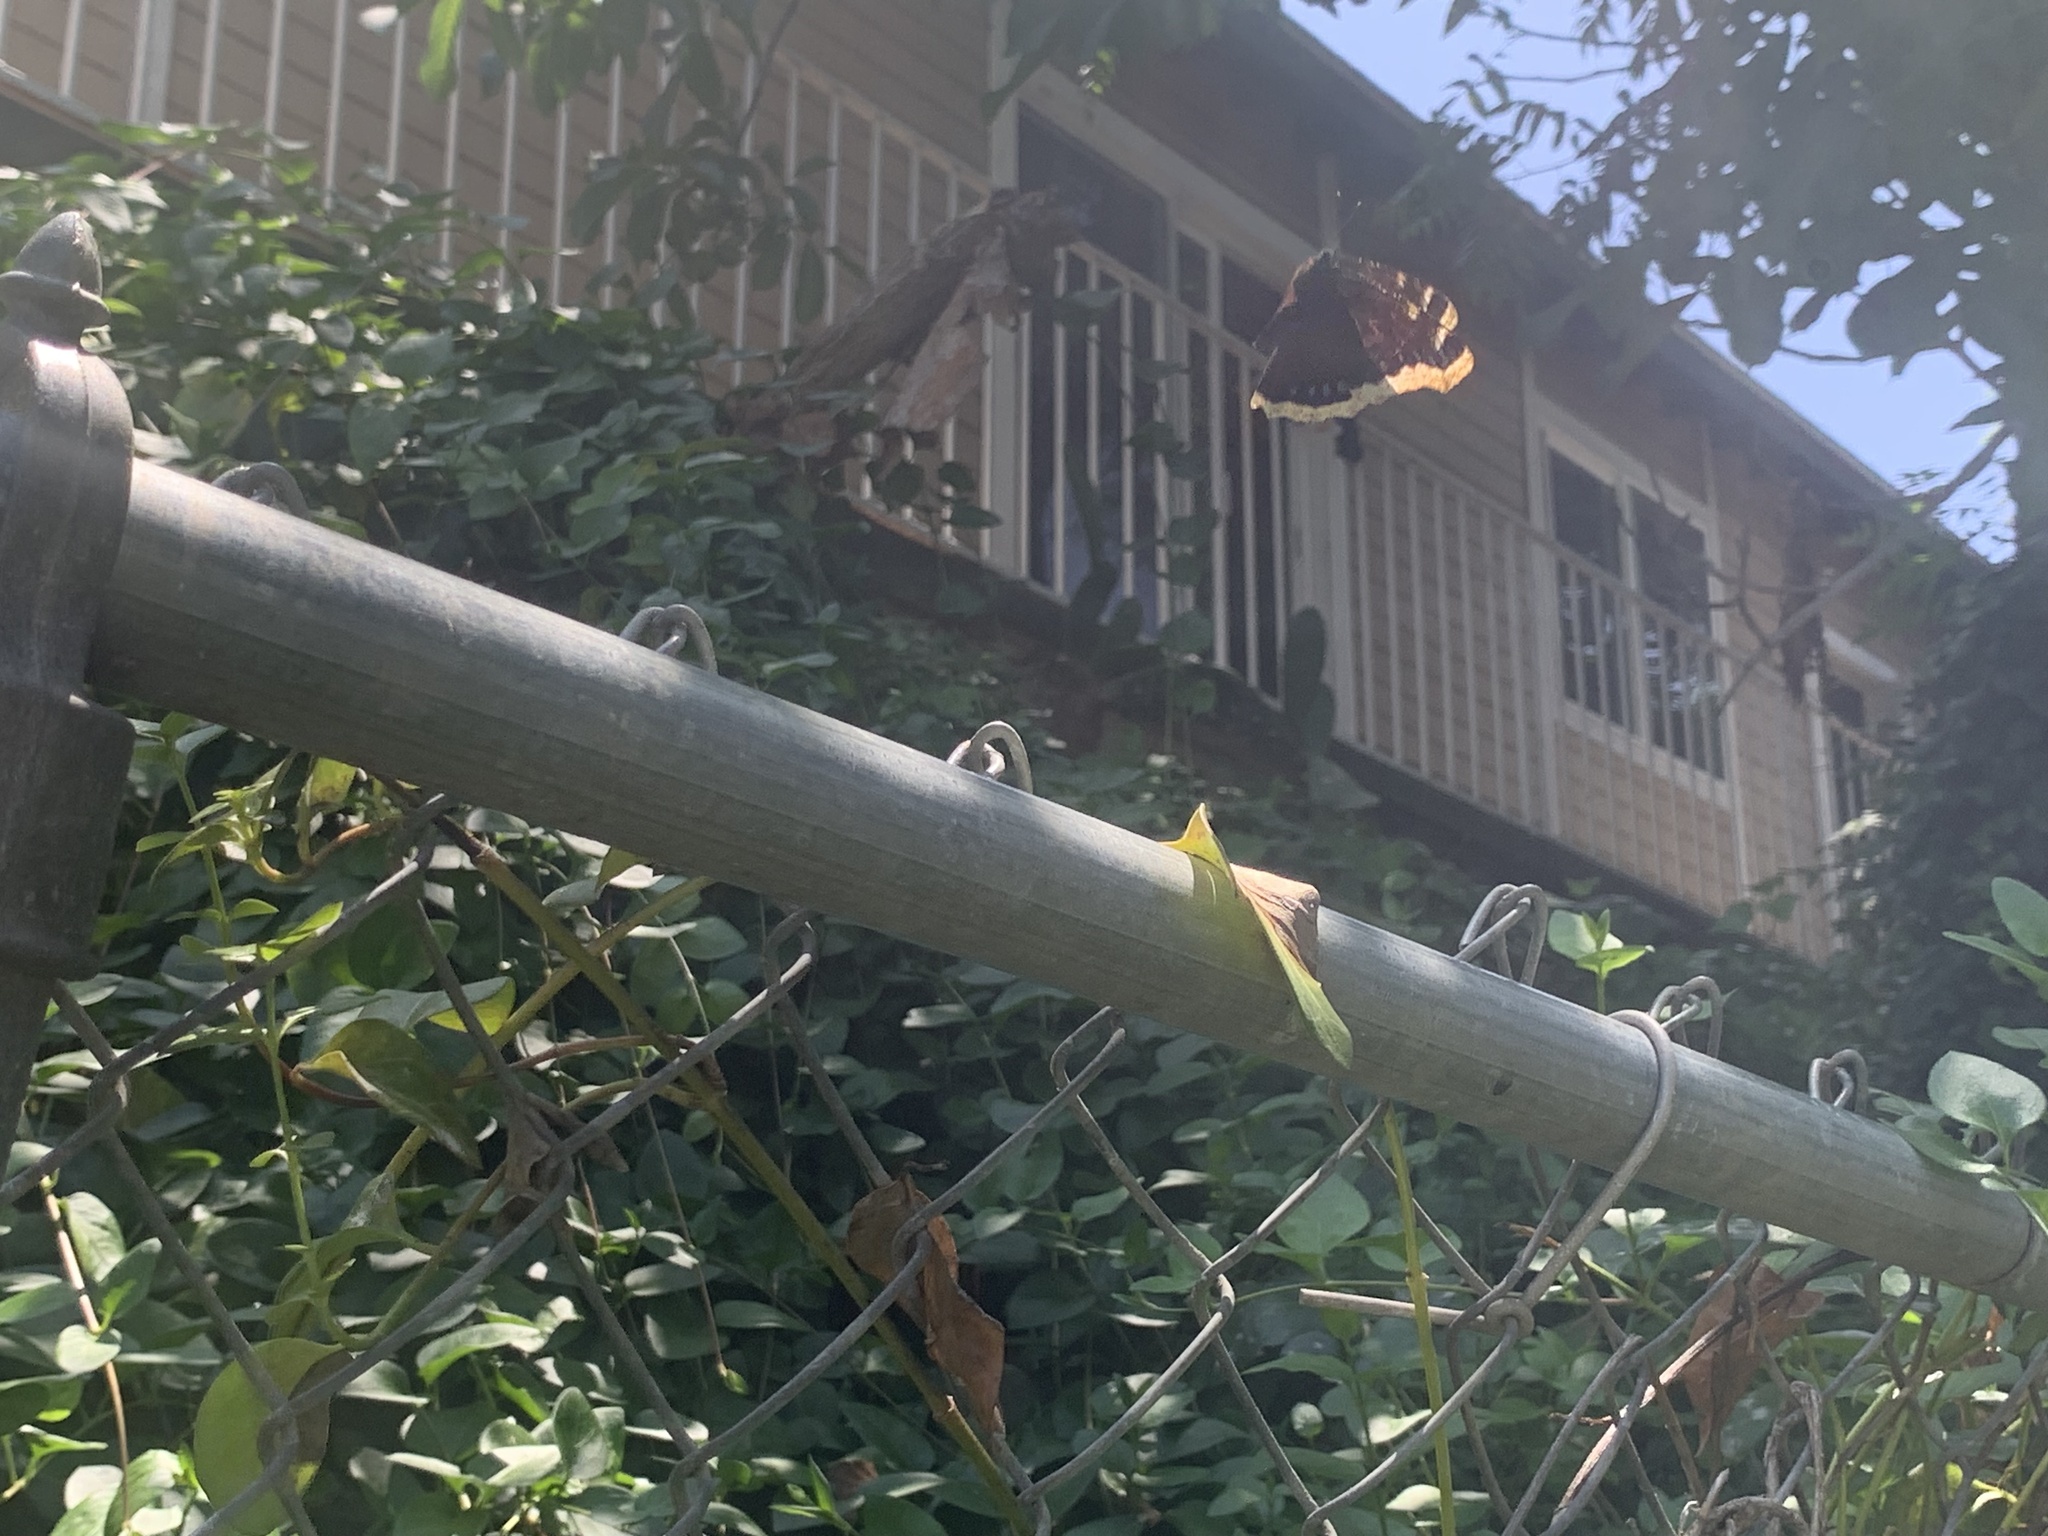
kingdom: Animalia
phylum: Arthropoda
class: Insecta
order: Lepidoptera
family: Nymphalidae
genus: Nymphalis
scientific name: Nymphalis antiopa
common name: Camberwell beauty
